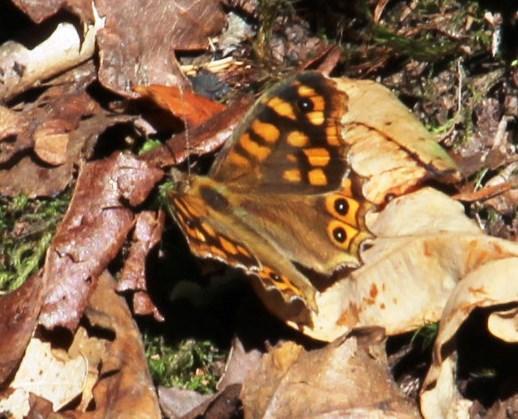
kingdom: Animalia
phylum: Arthropoda
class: Insecta
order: Lepidoptera
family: Nymphalidae
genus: Pararge
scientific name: Pararge aegeria
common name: Speckled wood
